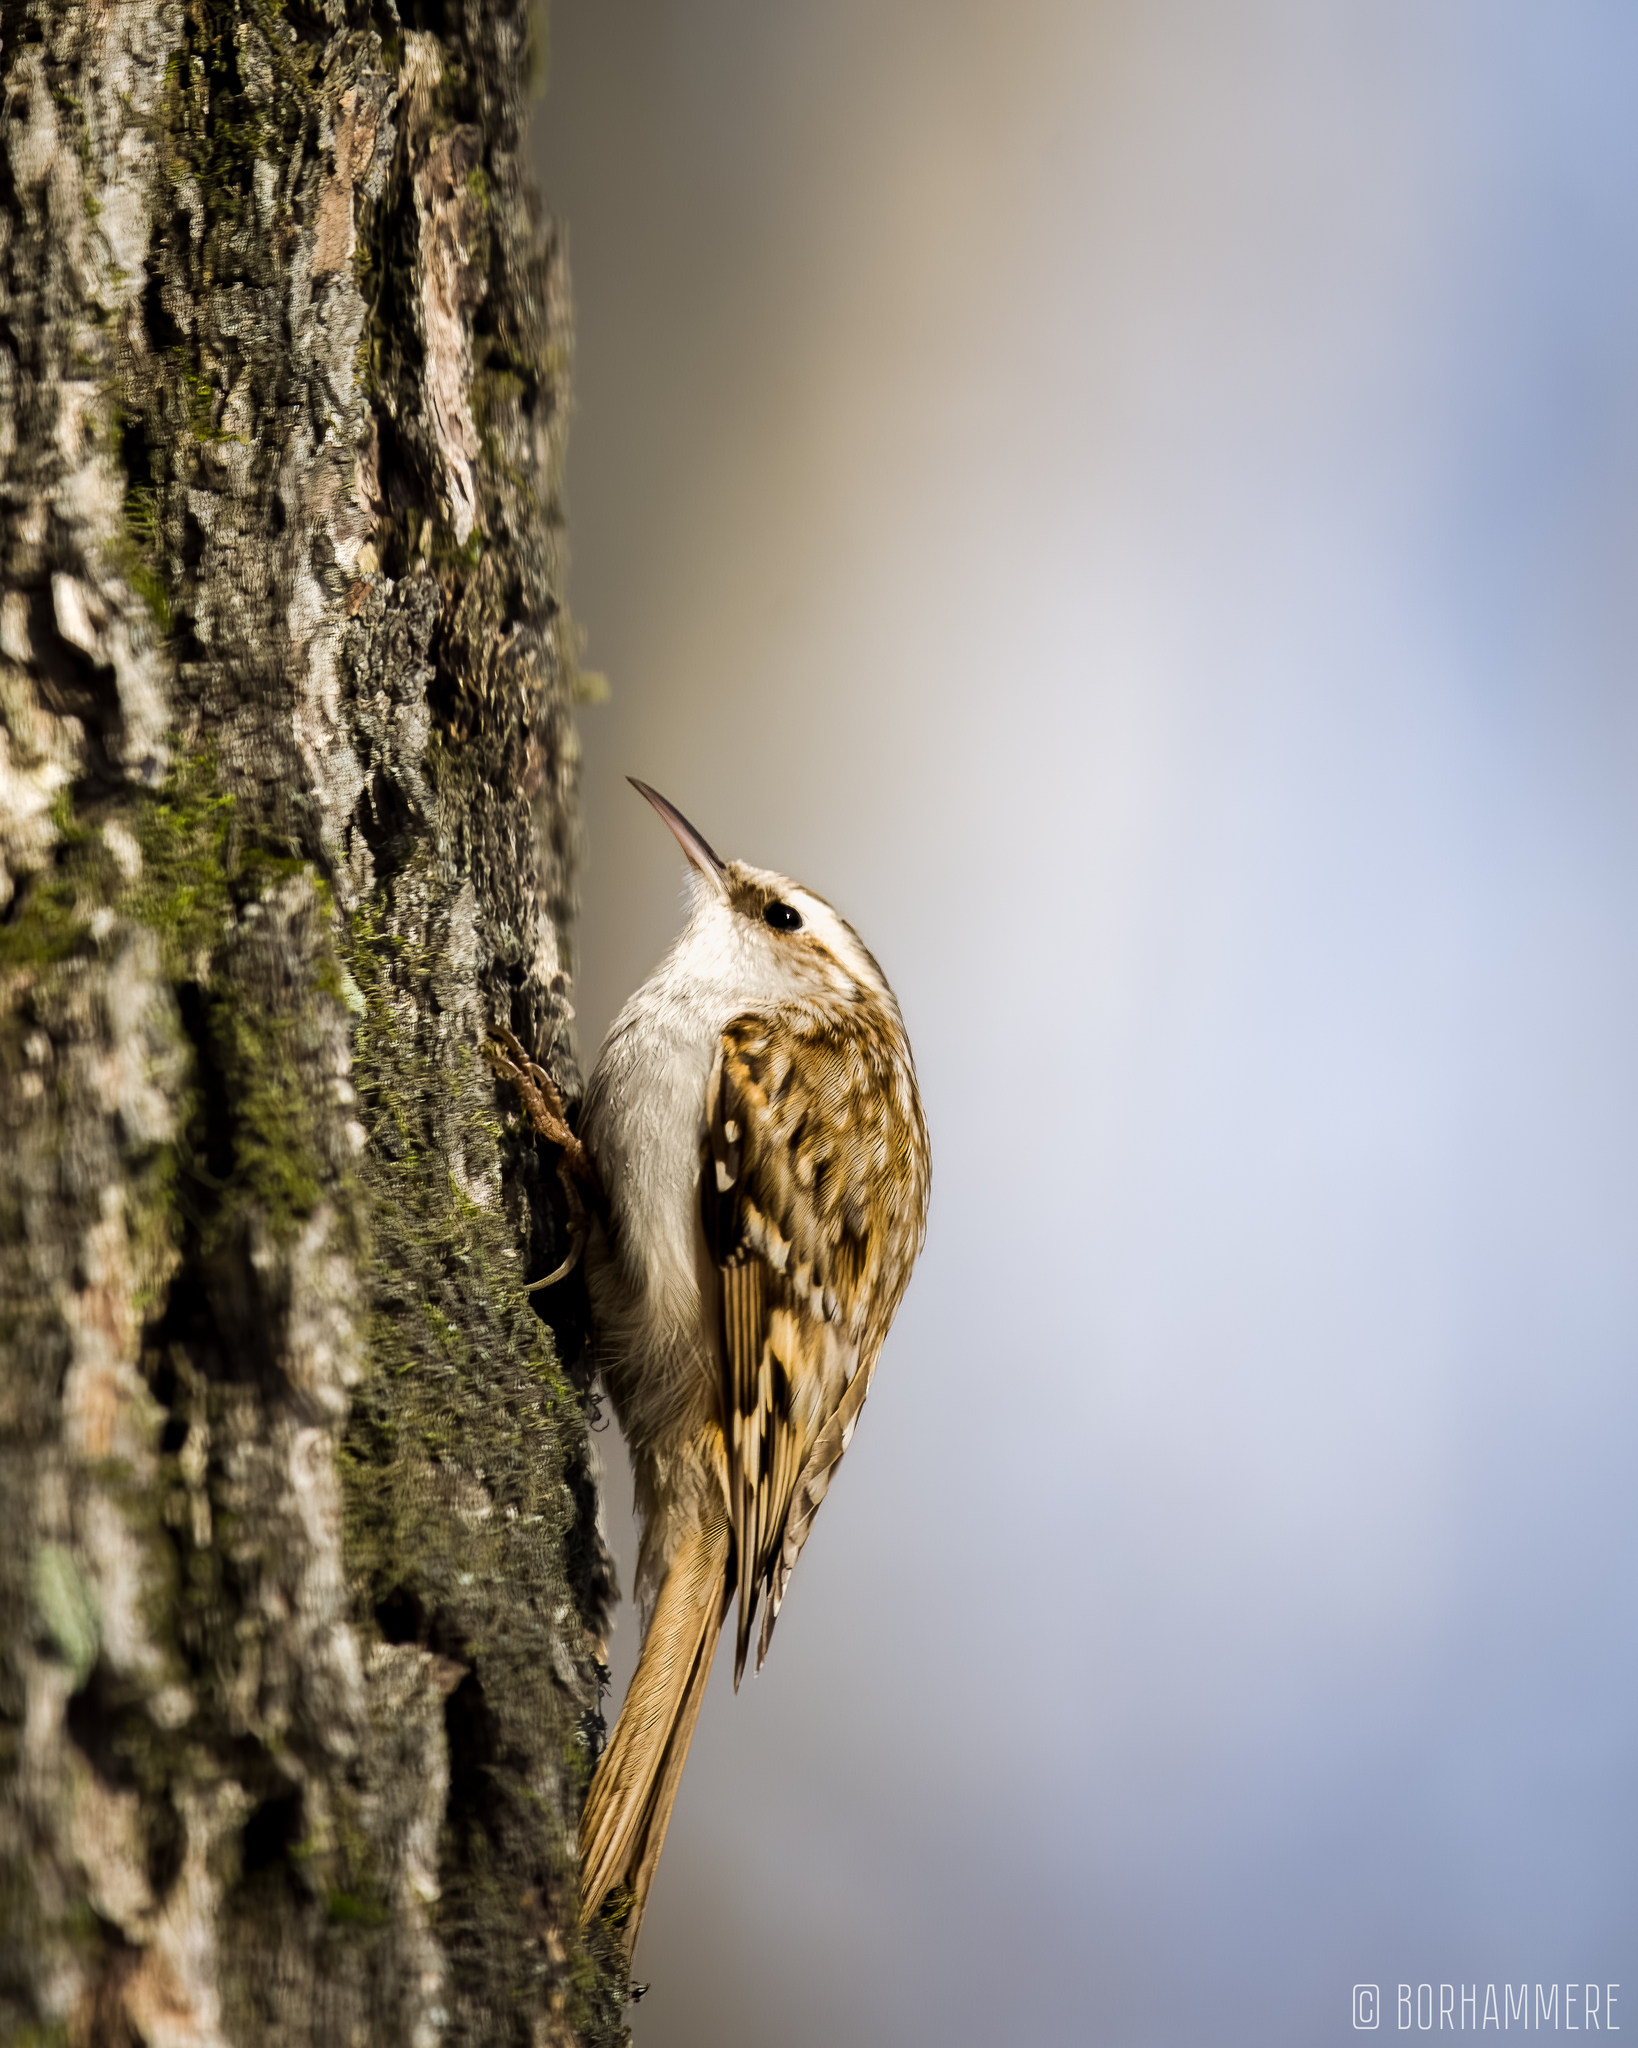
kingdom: Animalia
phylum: Chordata
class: Aves
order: Passeriformes
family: Certhiidae
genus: Certhia
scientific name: Certhia familiaris
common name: Eurasian treecreeper
